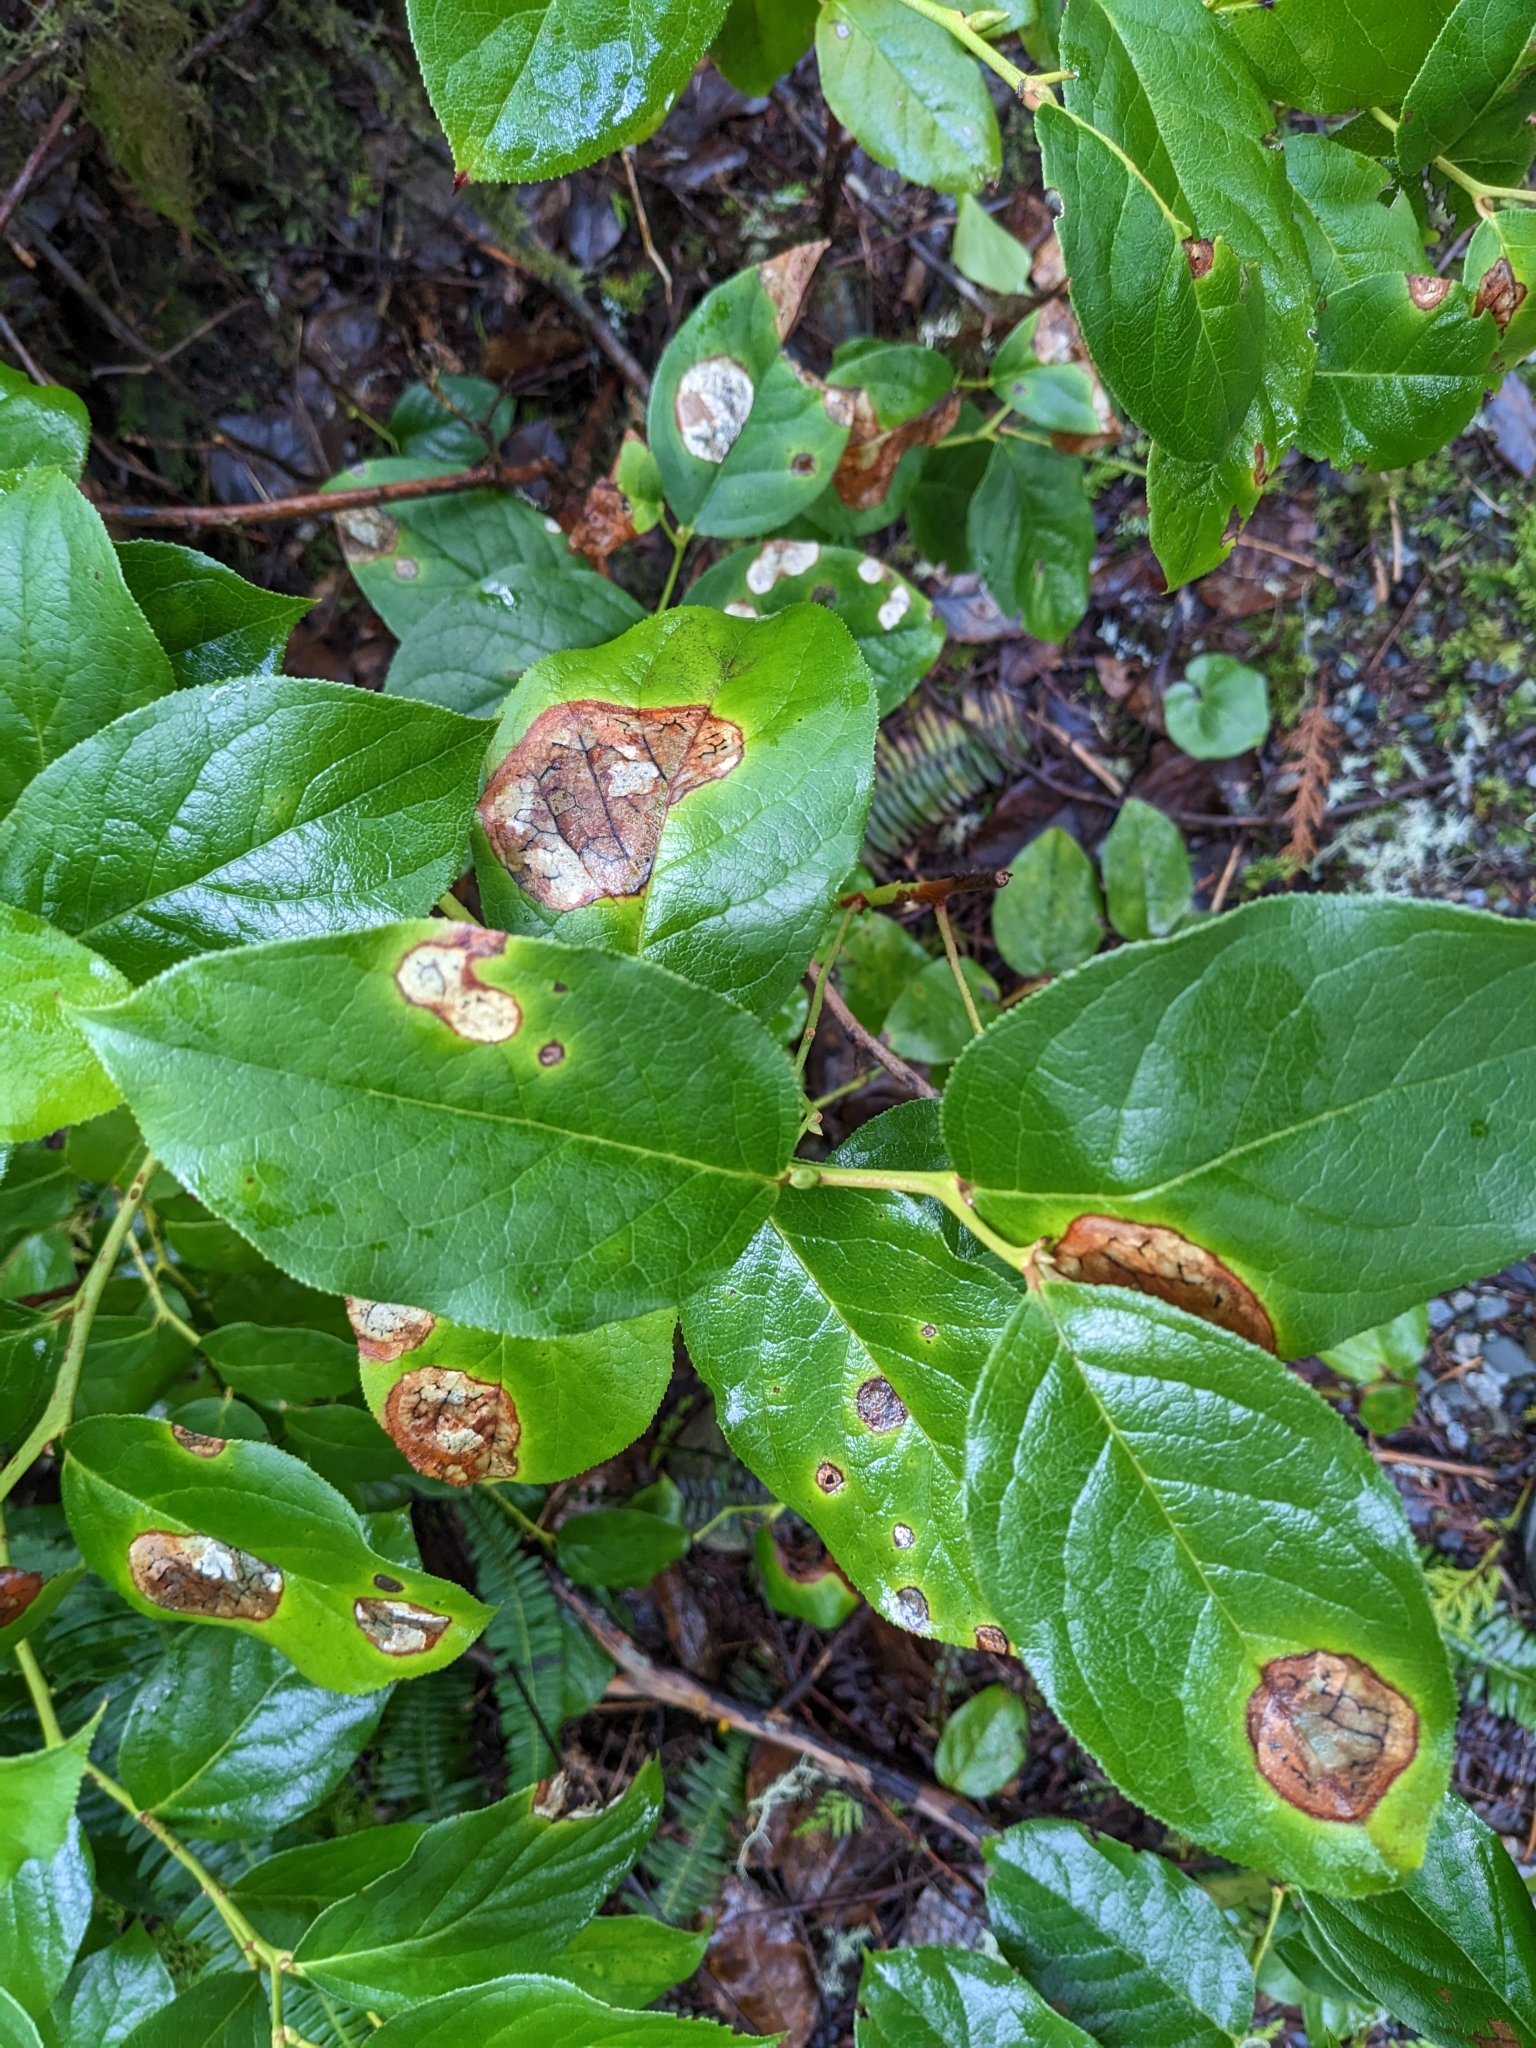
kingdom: Plantae
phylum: Tracheophyta
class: Magnoliopsida
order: Ericales
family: Ericaceae
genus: Gaultheria
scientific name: Gaultheria shallon
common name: Shallon
